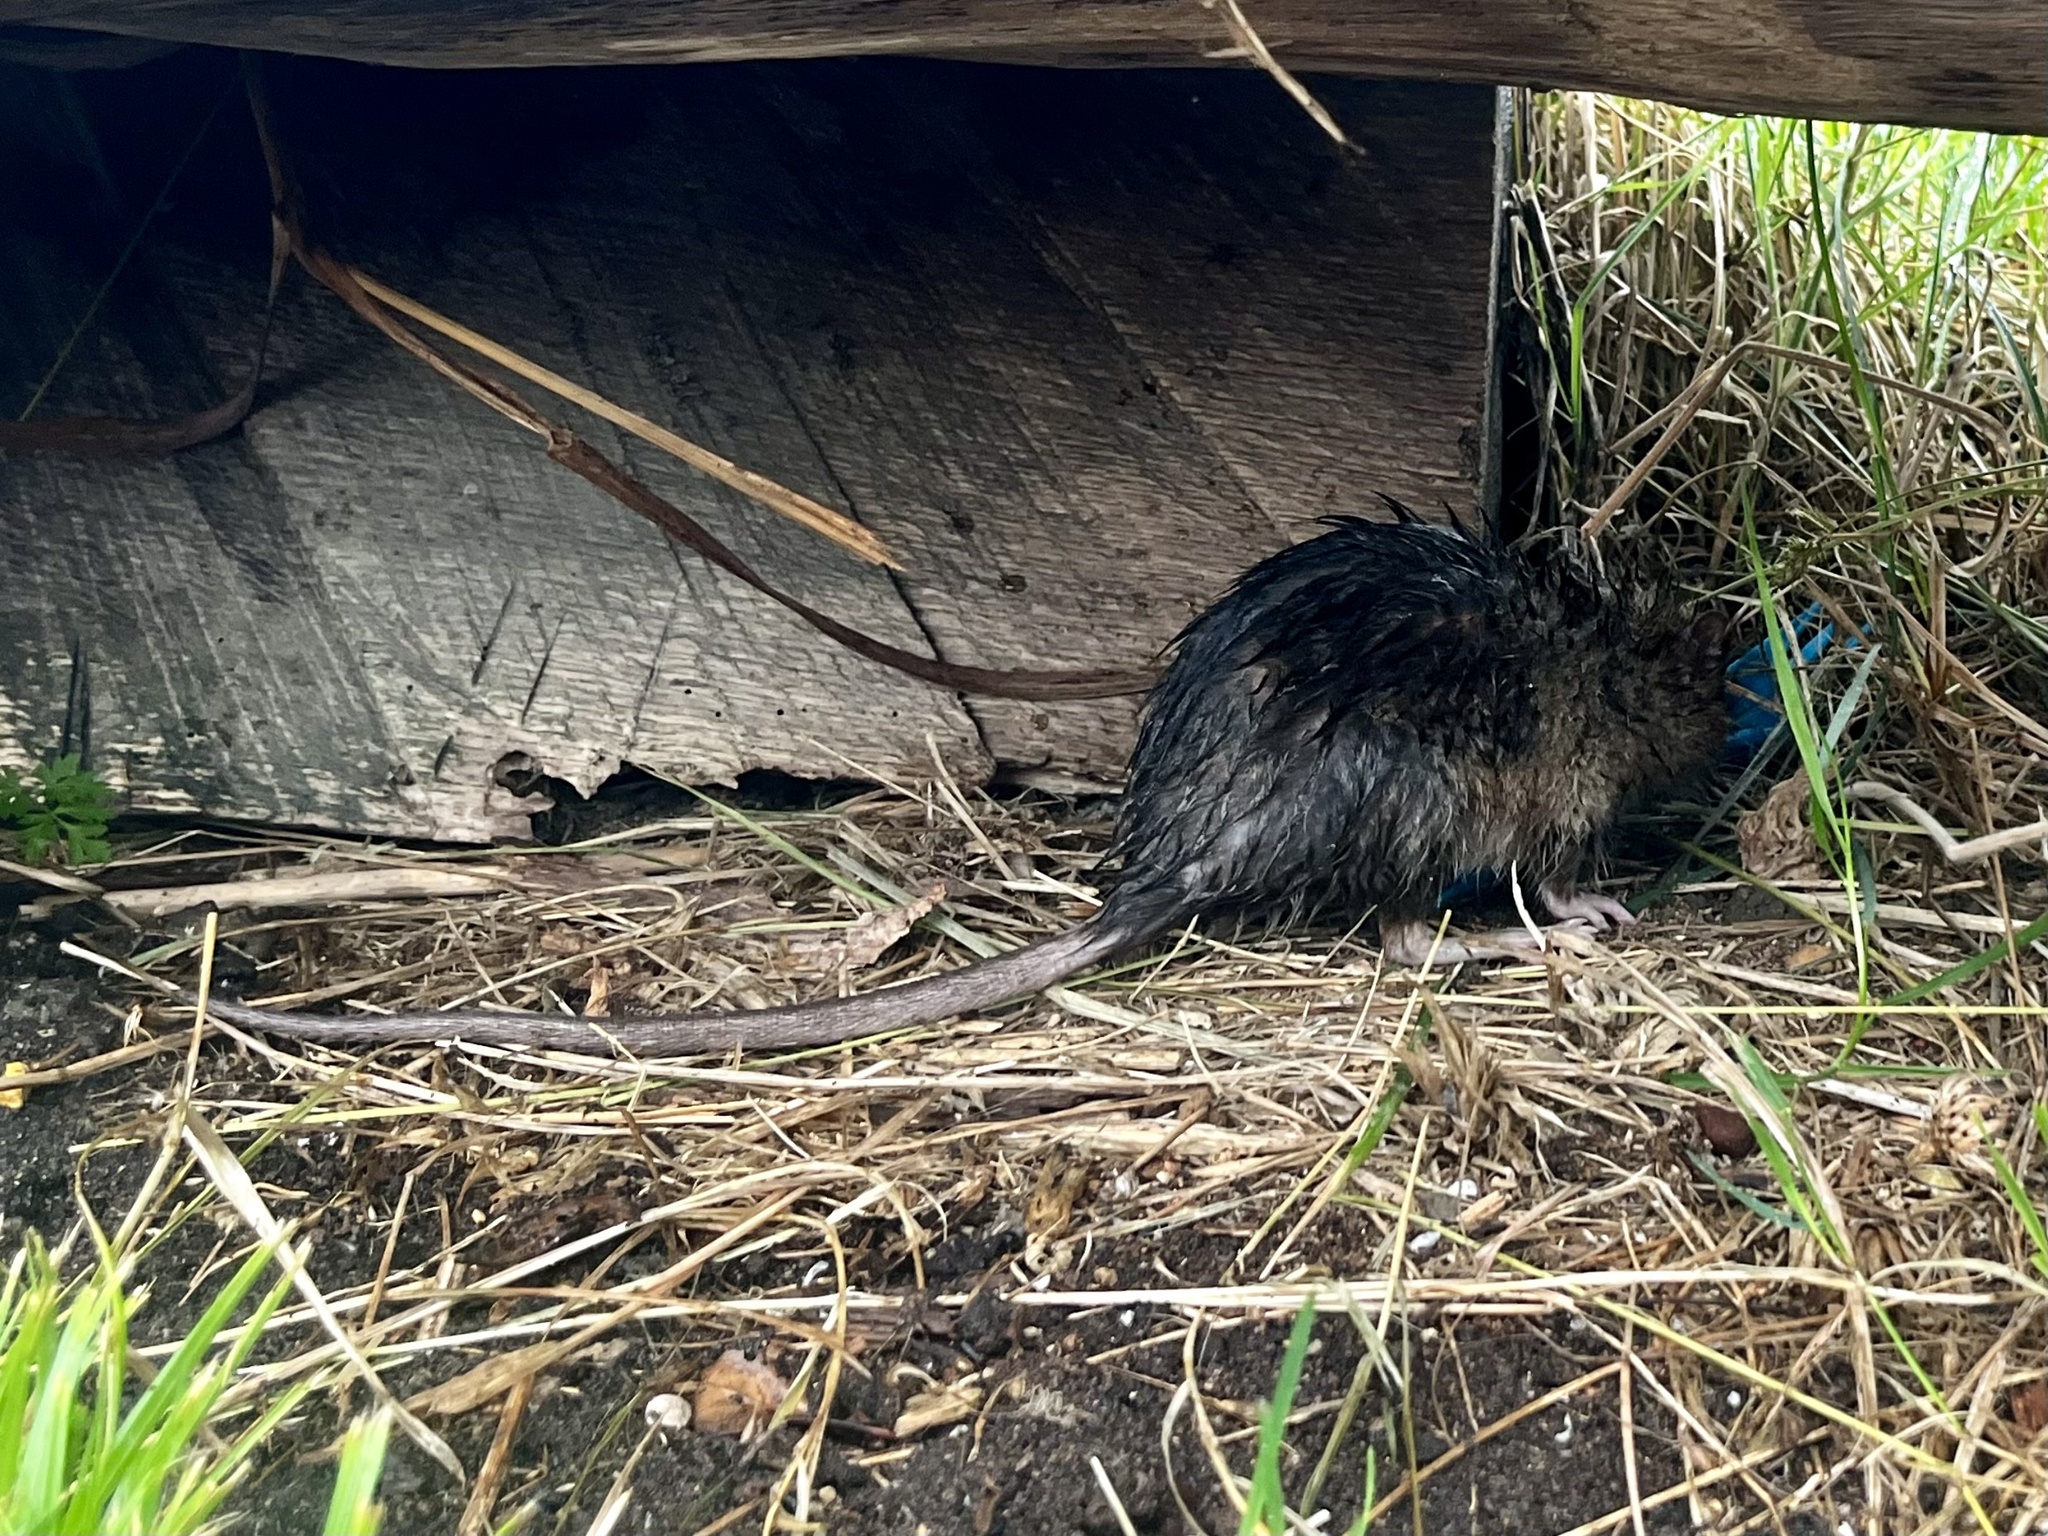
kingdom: Animalia
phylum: Chordata
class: Mammalia
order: Rodentia
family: Muridae
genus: Rattus
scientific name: Rattus norvegicus
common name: Brown rat
